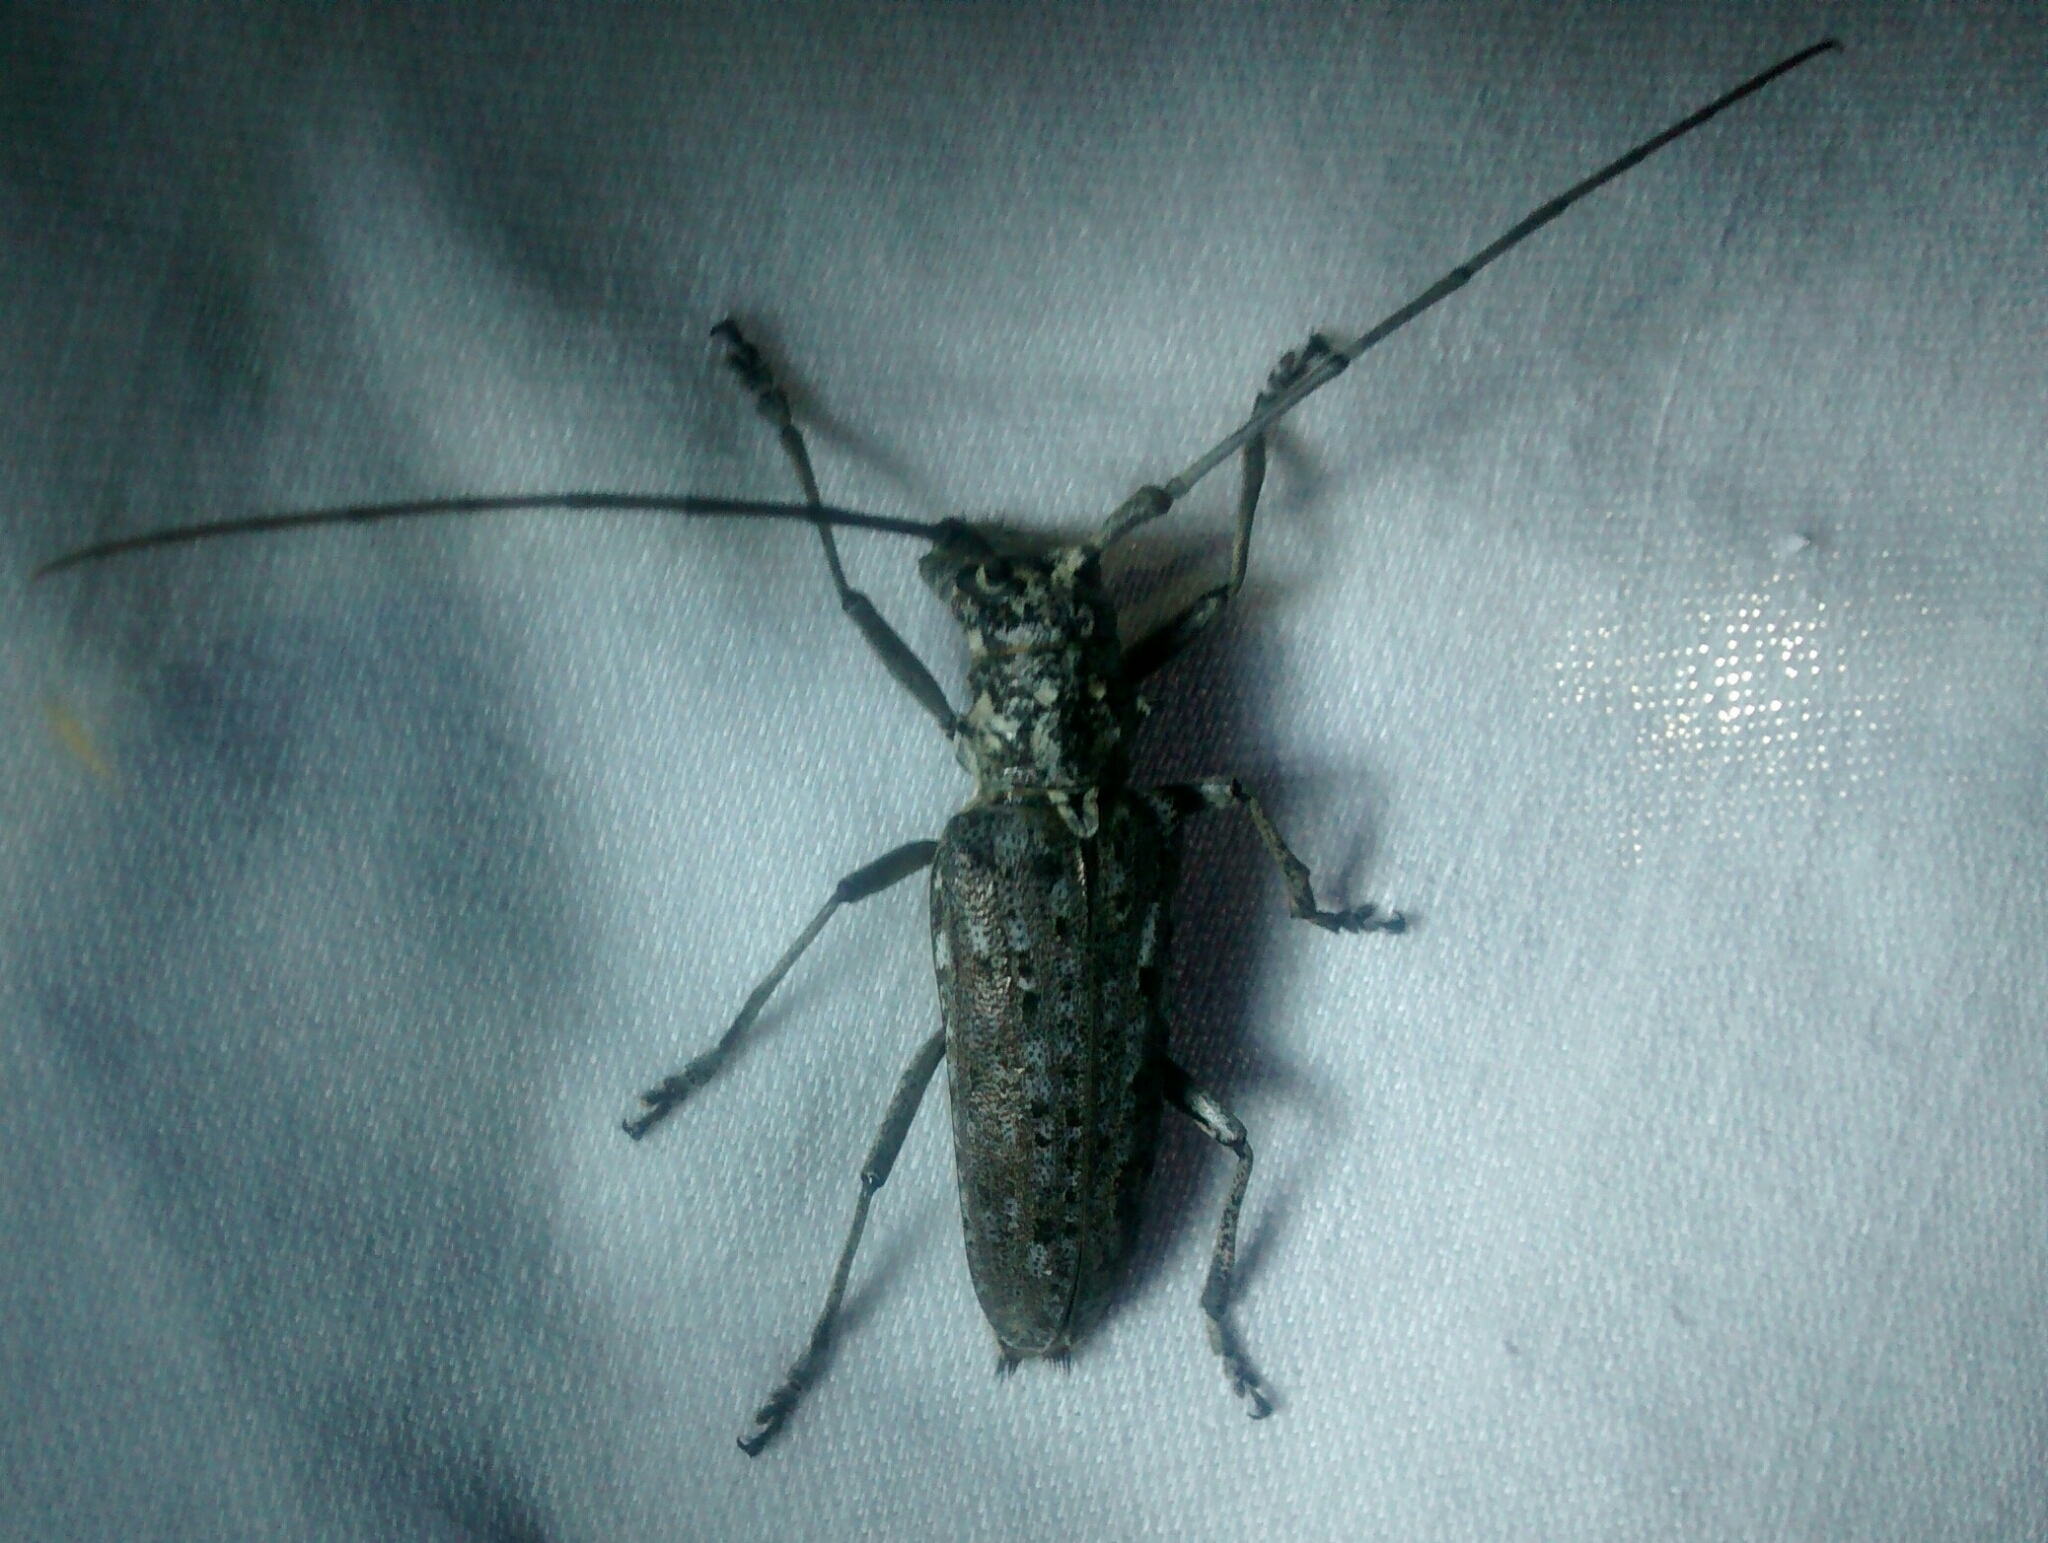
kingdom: Animalia
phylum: Arthropoda
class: Insecta
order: Coleoptera
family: Cerambycidae
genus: Monochamus
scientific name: Monochamus notatus
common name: Northeastern pine sawyer beetle
